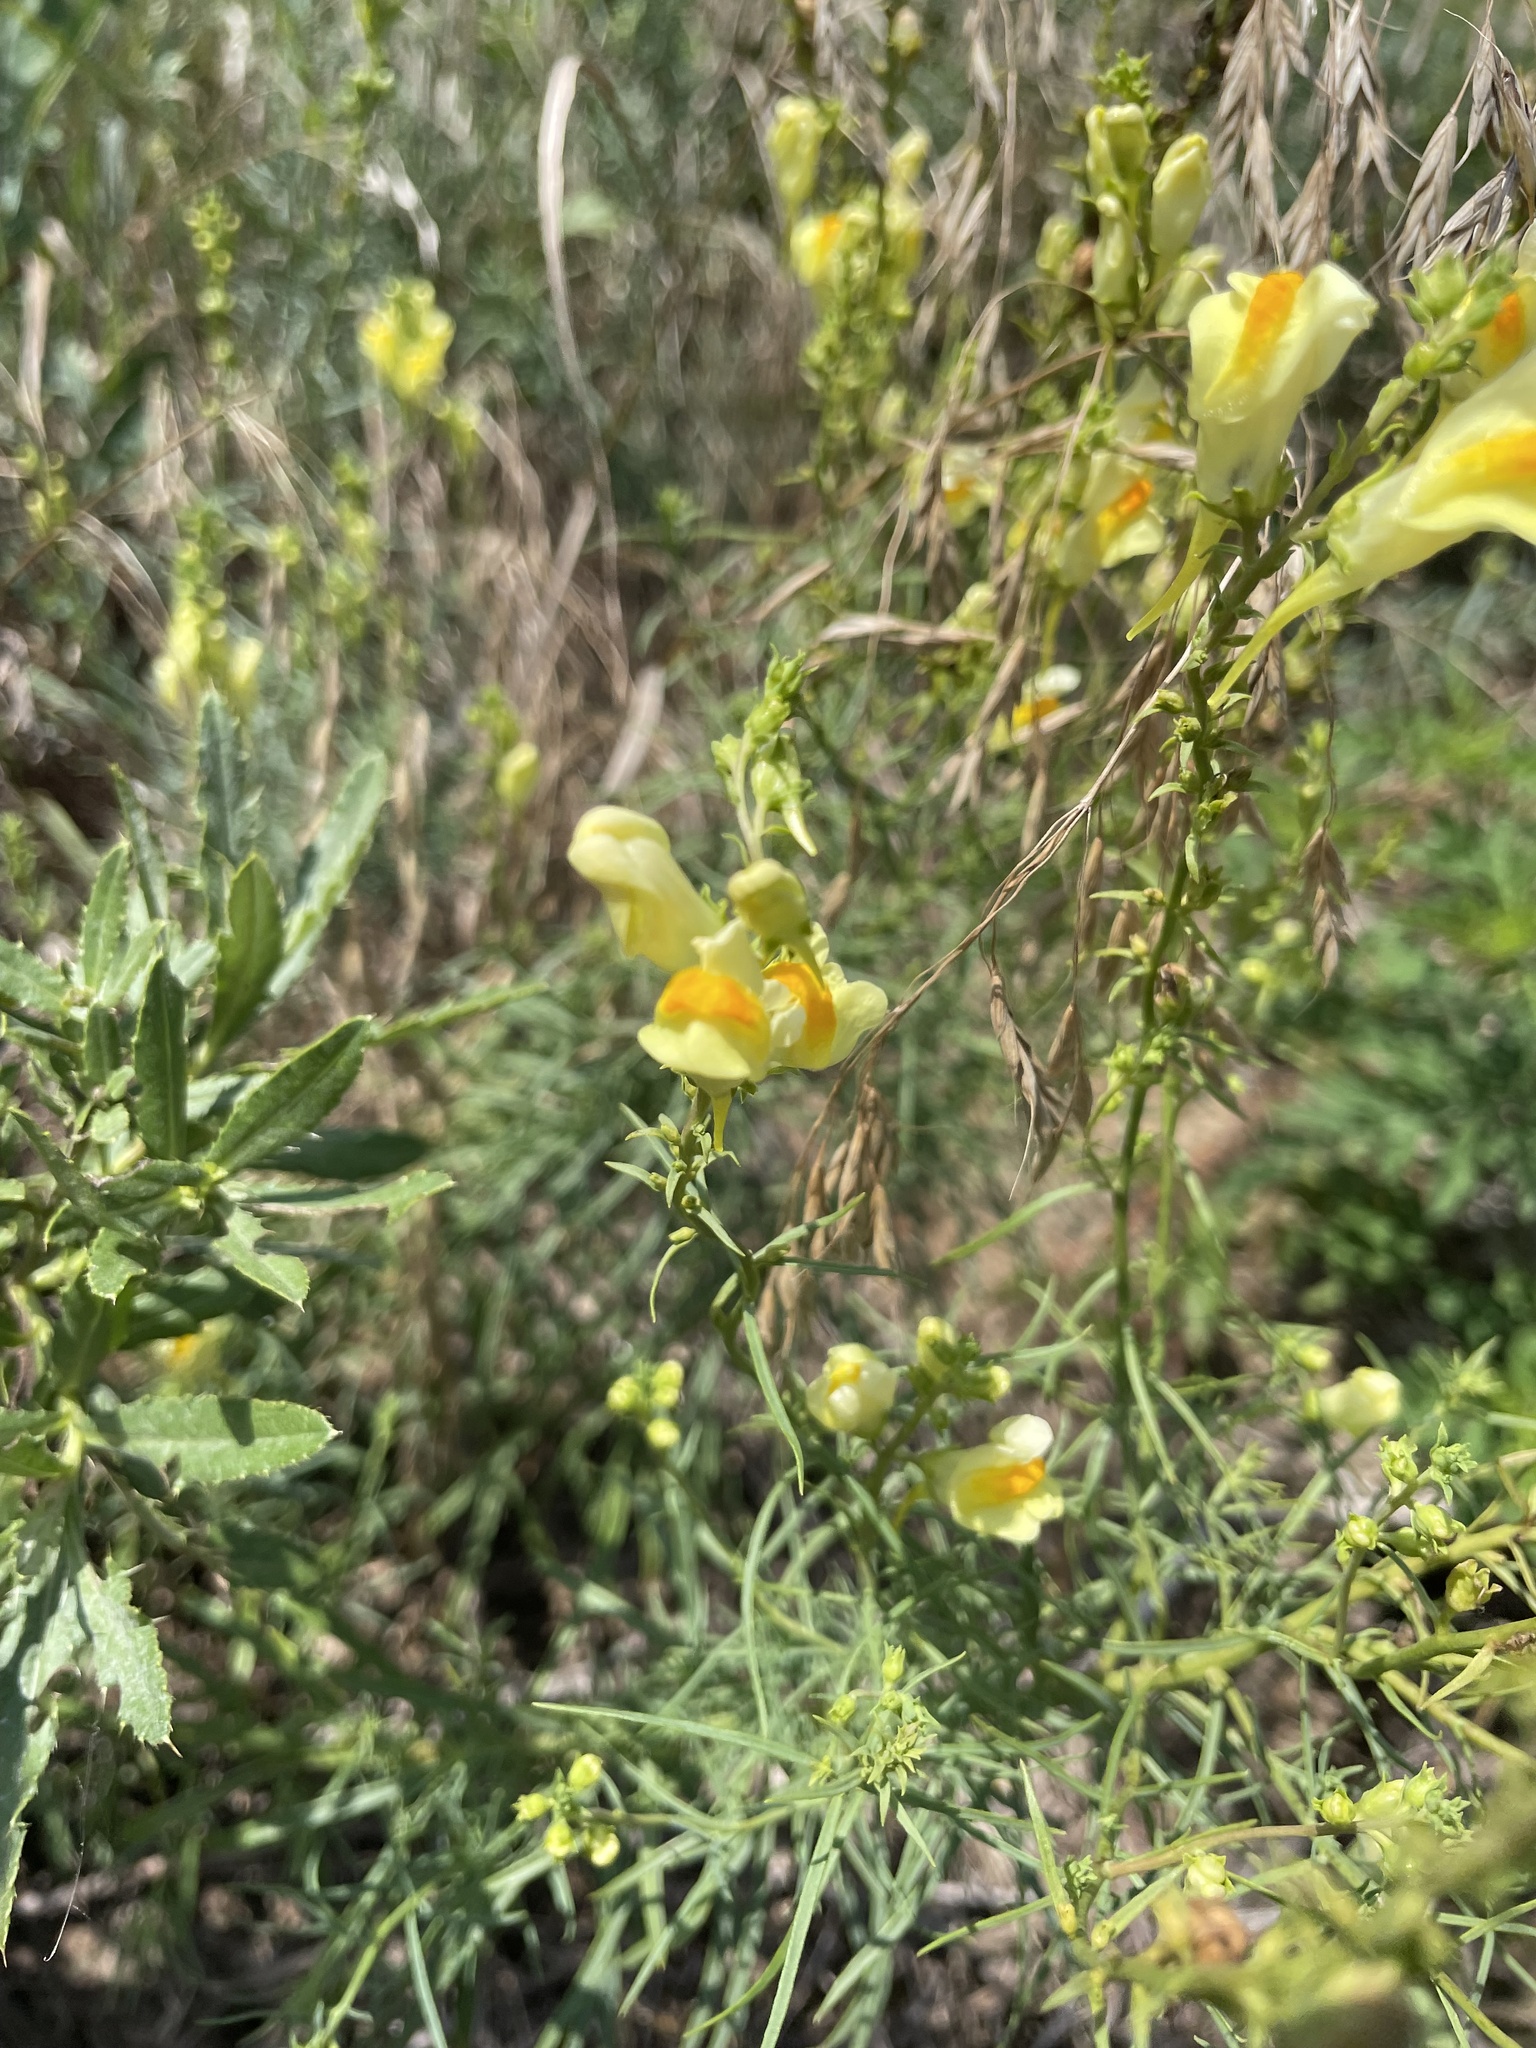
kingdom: Plantae
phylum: Tracheophyta
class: Magnoliopsida
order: Lamiales
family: Plantaginaceae
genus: Linaria
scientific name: Linaria vulgaris
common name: Butter and eggs
